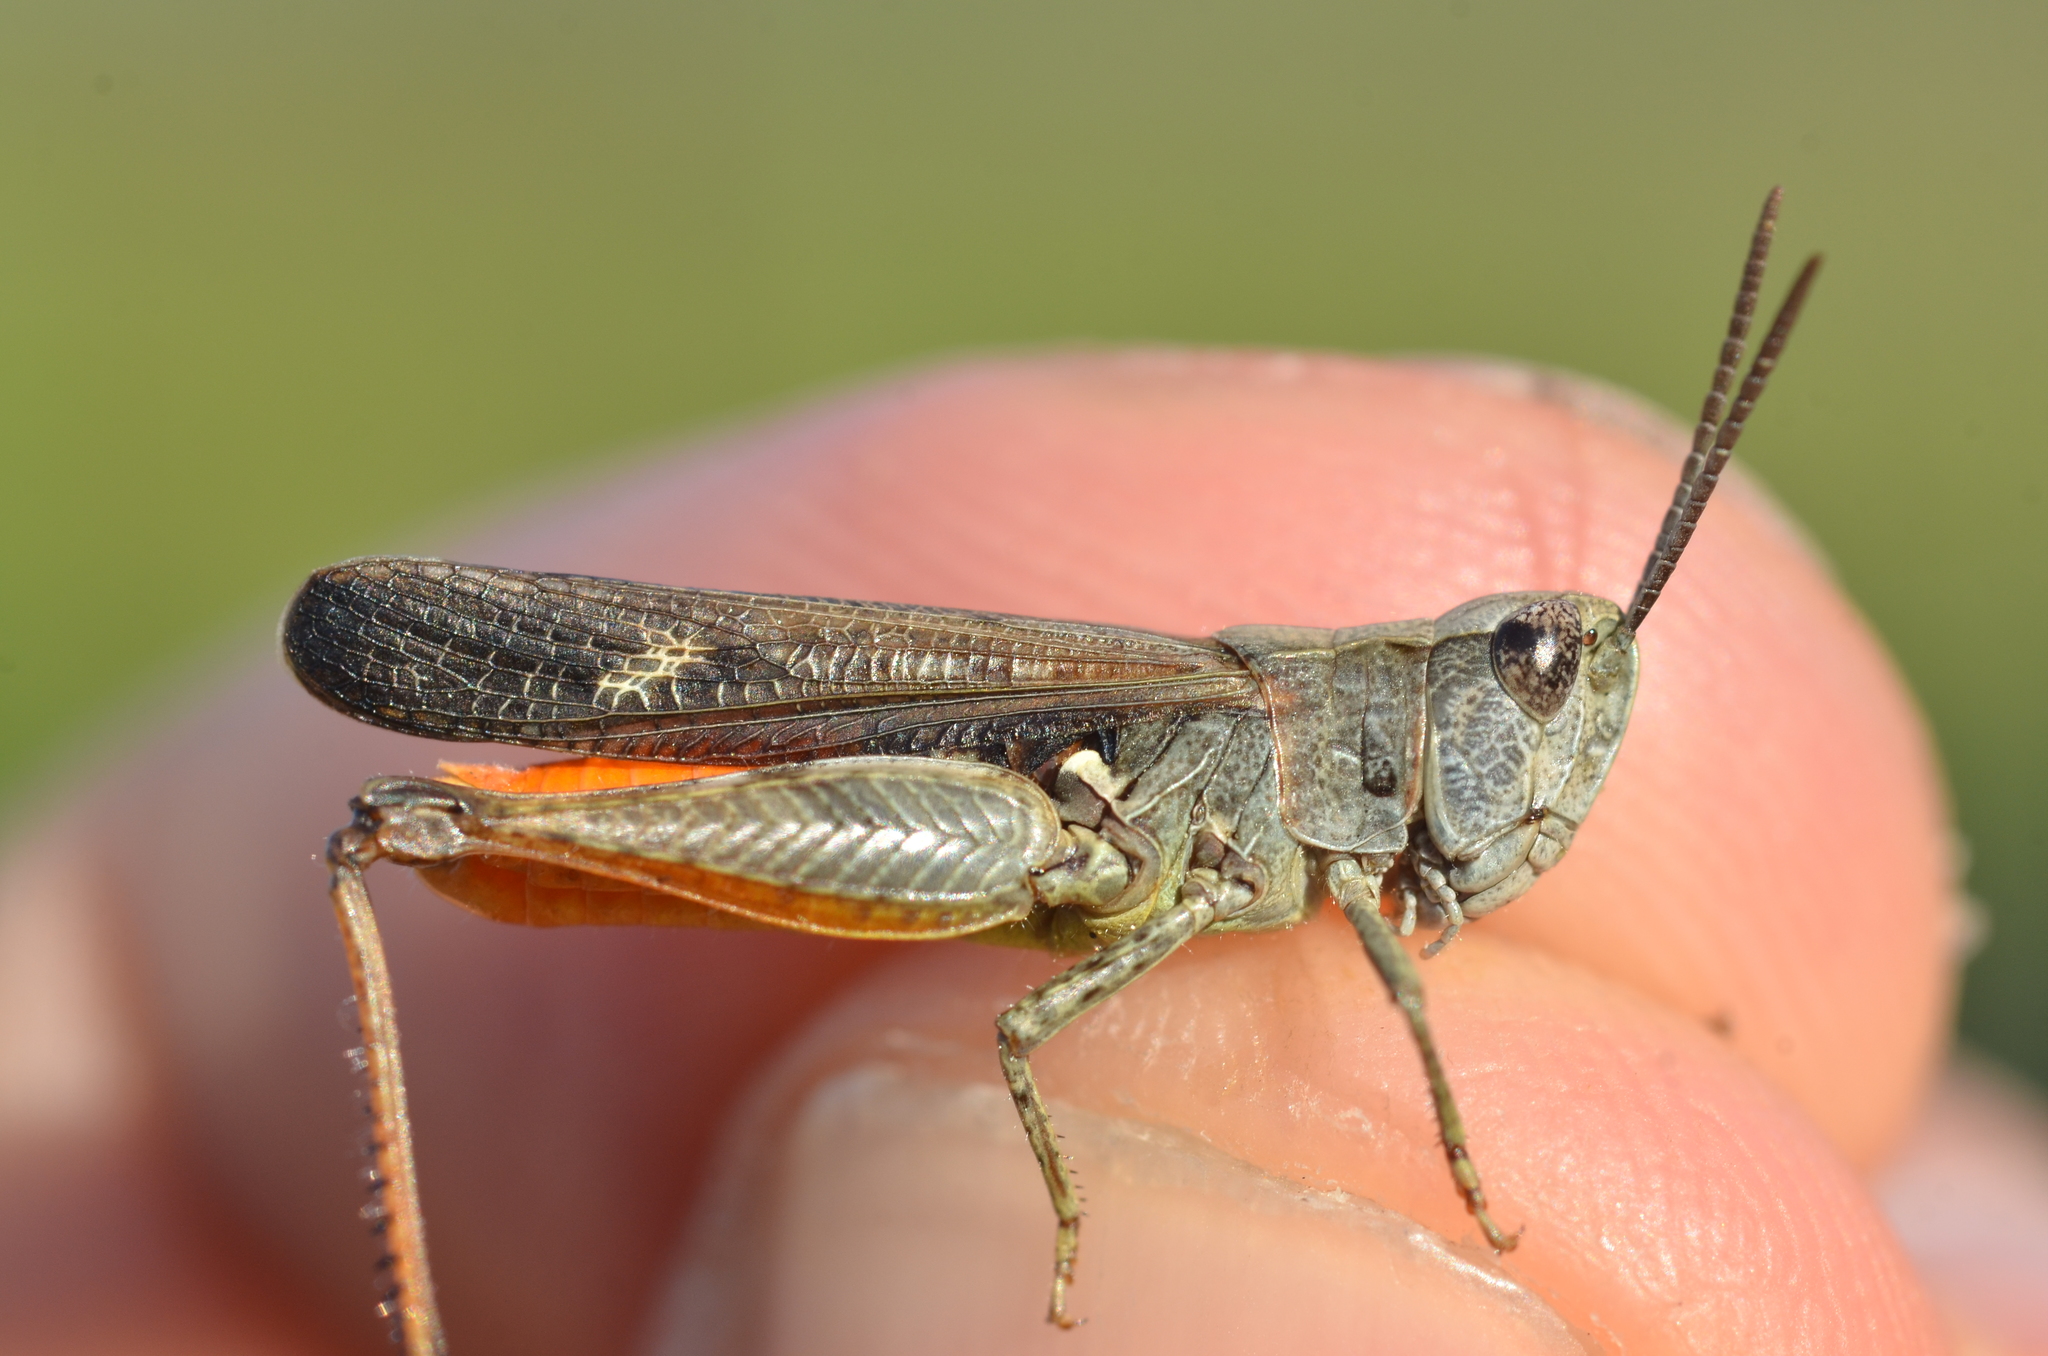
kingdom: Animalia
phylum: Arthropoda
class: Insecta
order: Orthoptera
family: Acrididae
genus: Omocestus
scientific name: Omocestus raymondi
